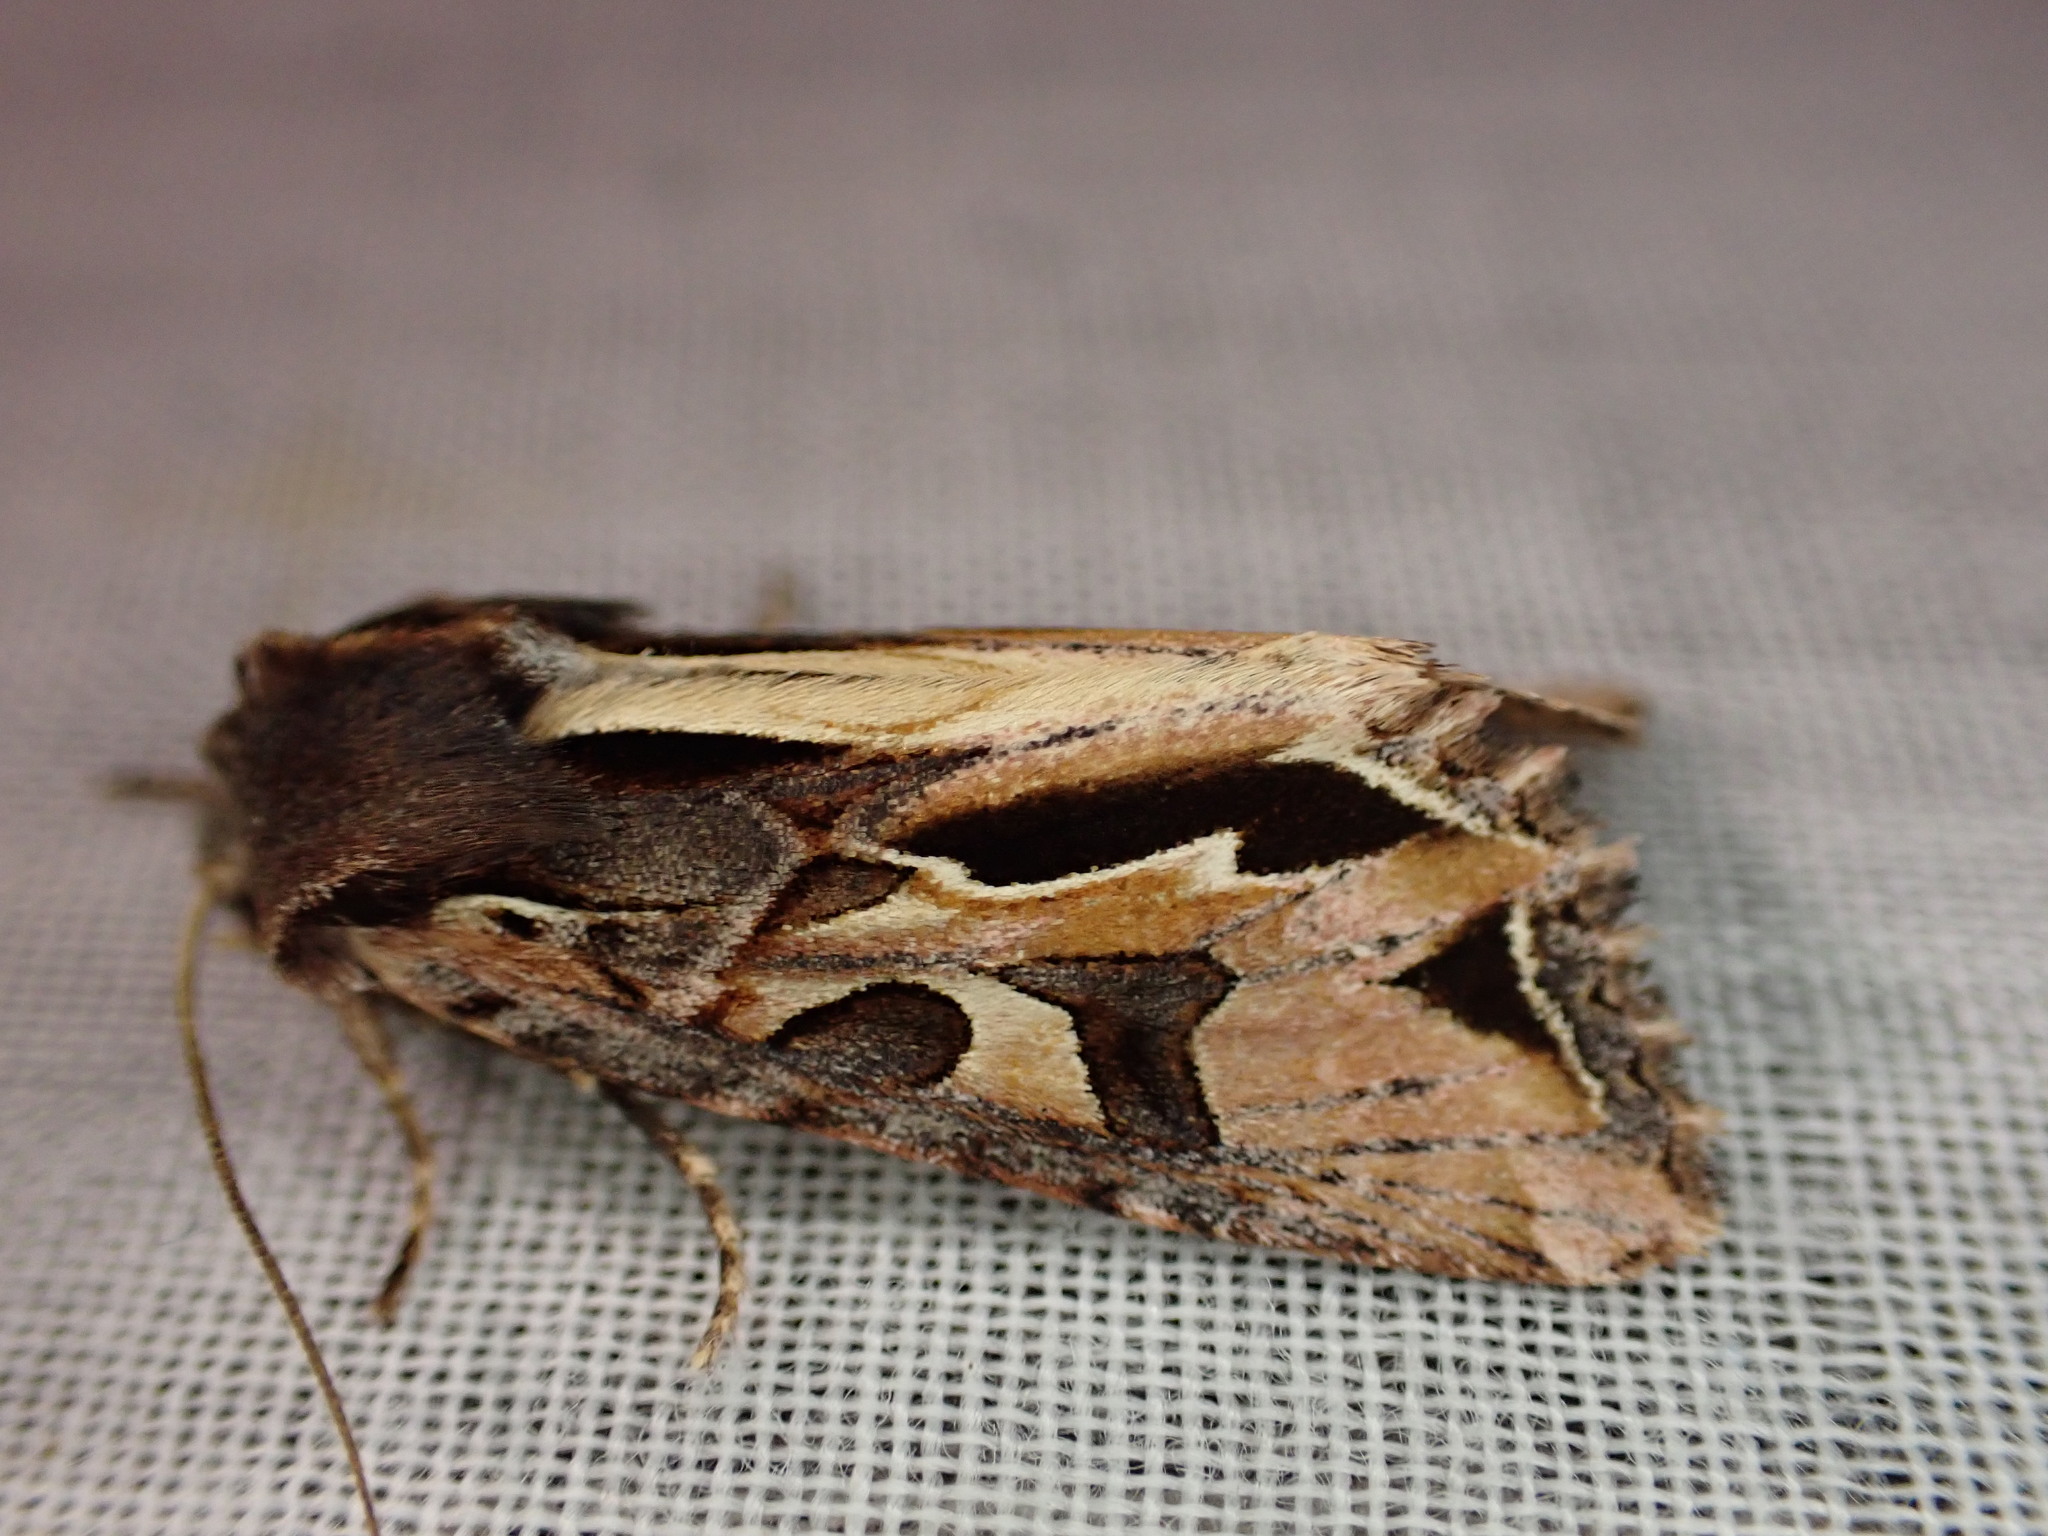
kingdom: Animalia
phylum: Arthropoda
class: Insecta
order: Lepidoptera
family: Noctuidae
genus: Ichneutica
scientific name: Ichneutica
